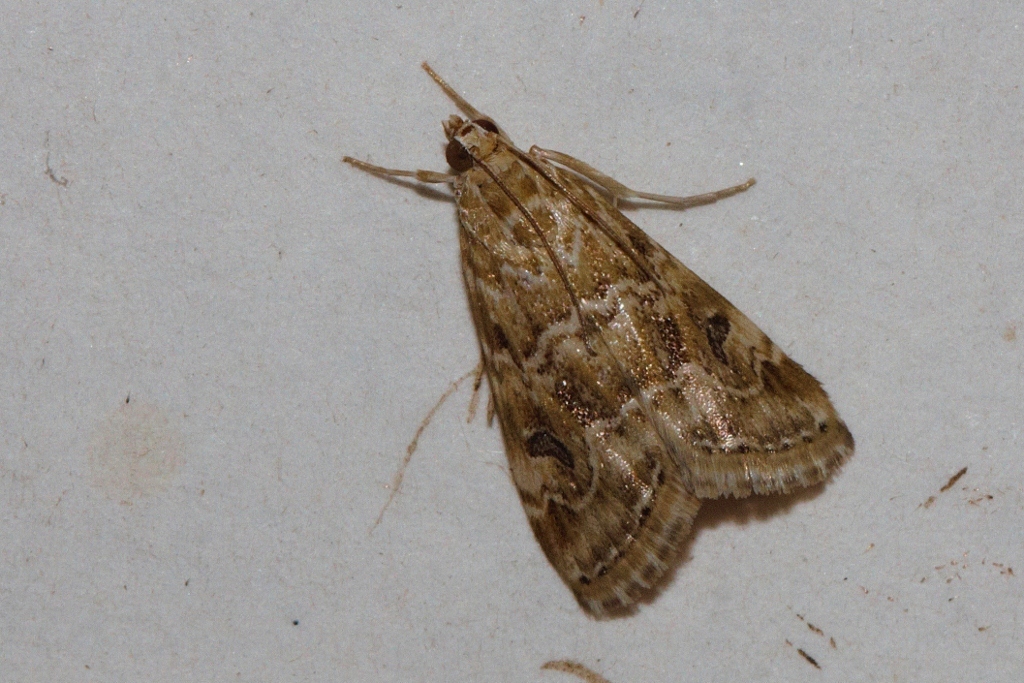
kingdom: Animalia
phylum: Arthropoda
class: Insecta
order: Lepidoptera
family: Crambidae
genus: Hellula
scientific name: Hellula undalis
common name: Cabbage webworm
